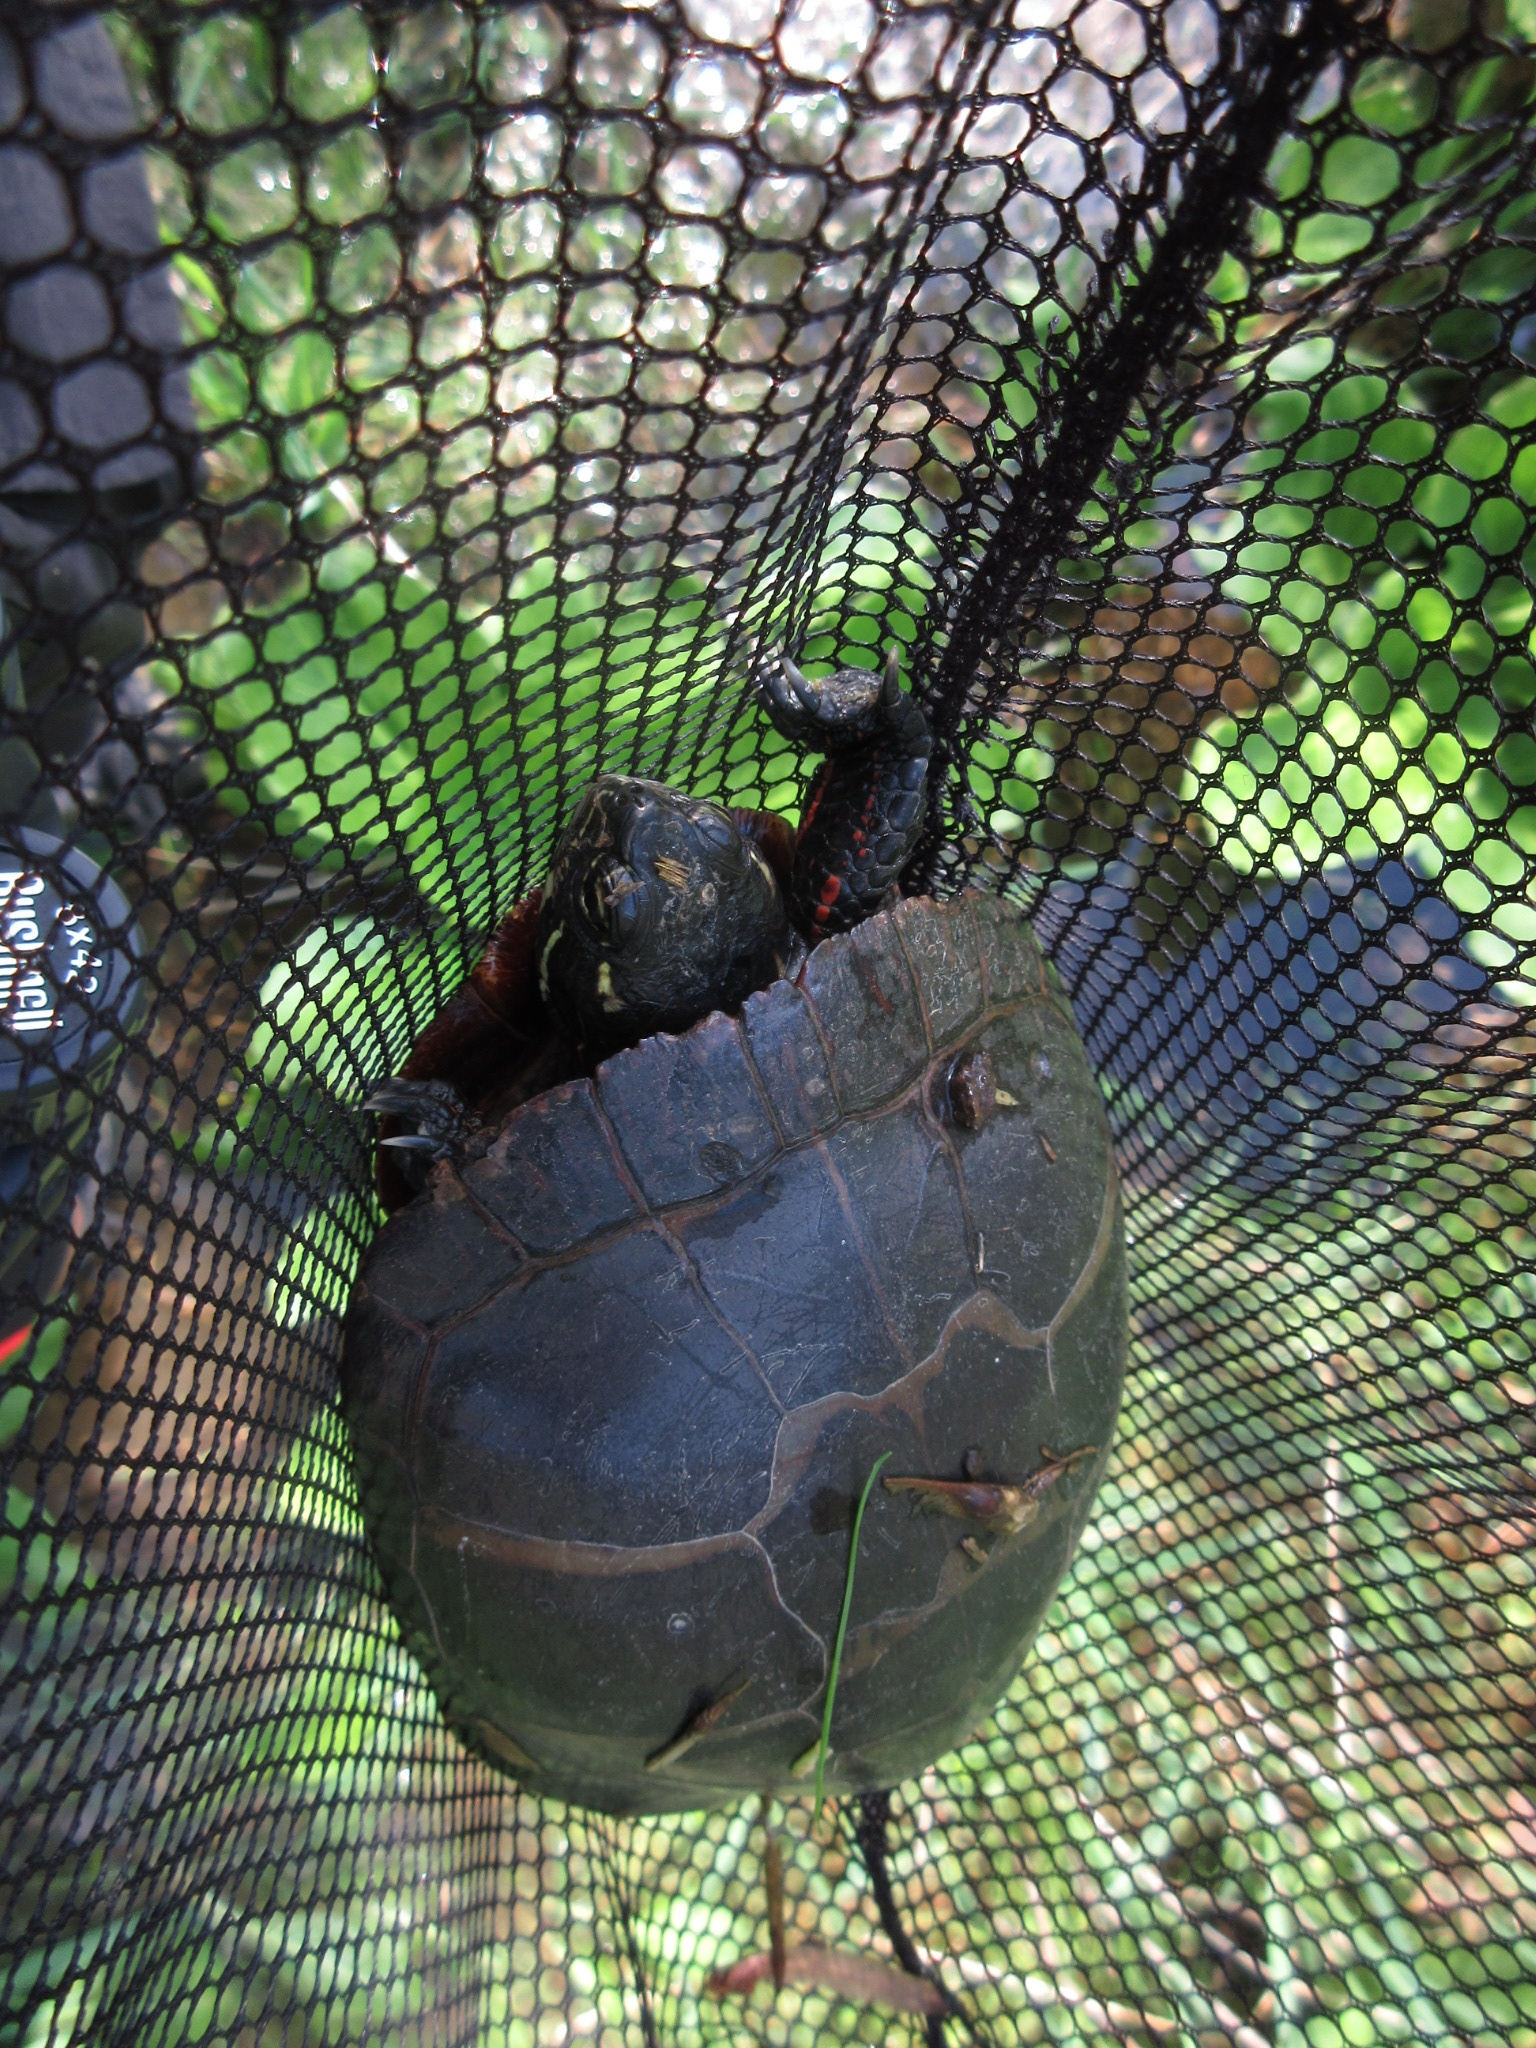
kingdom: Animalia
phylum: Chordata
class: Testudines
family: Emydidae
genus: Chrysemys
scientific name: Chrysemys picta
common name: Painted turtle
